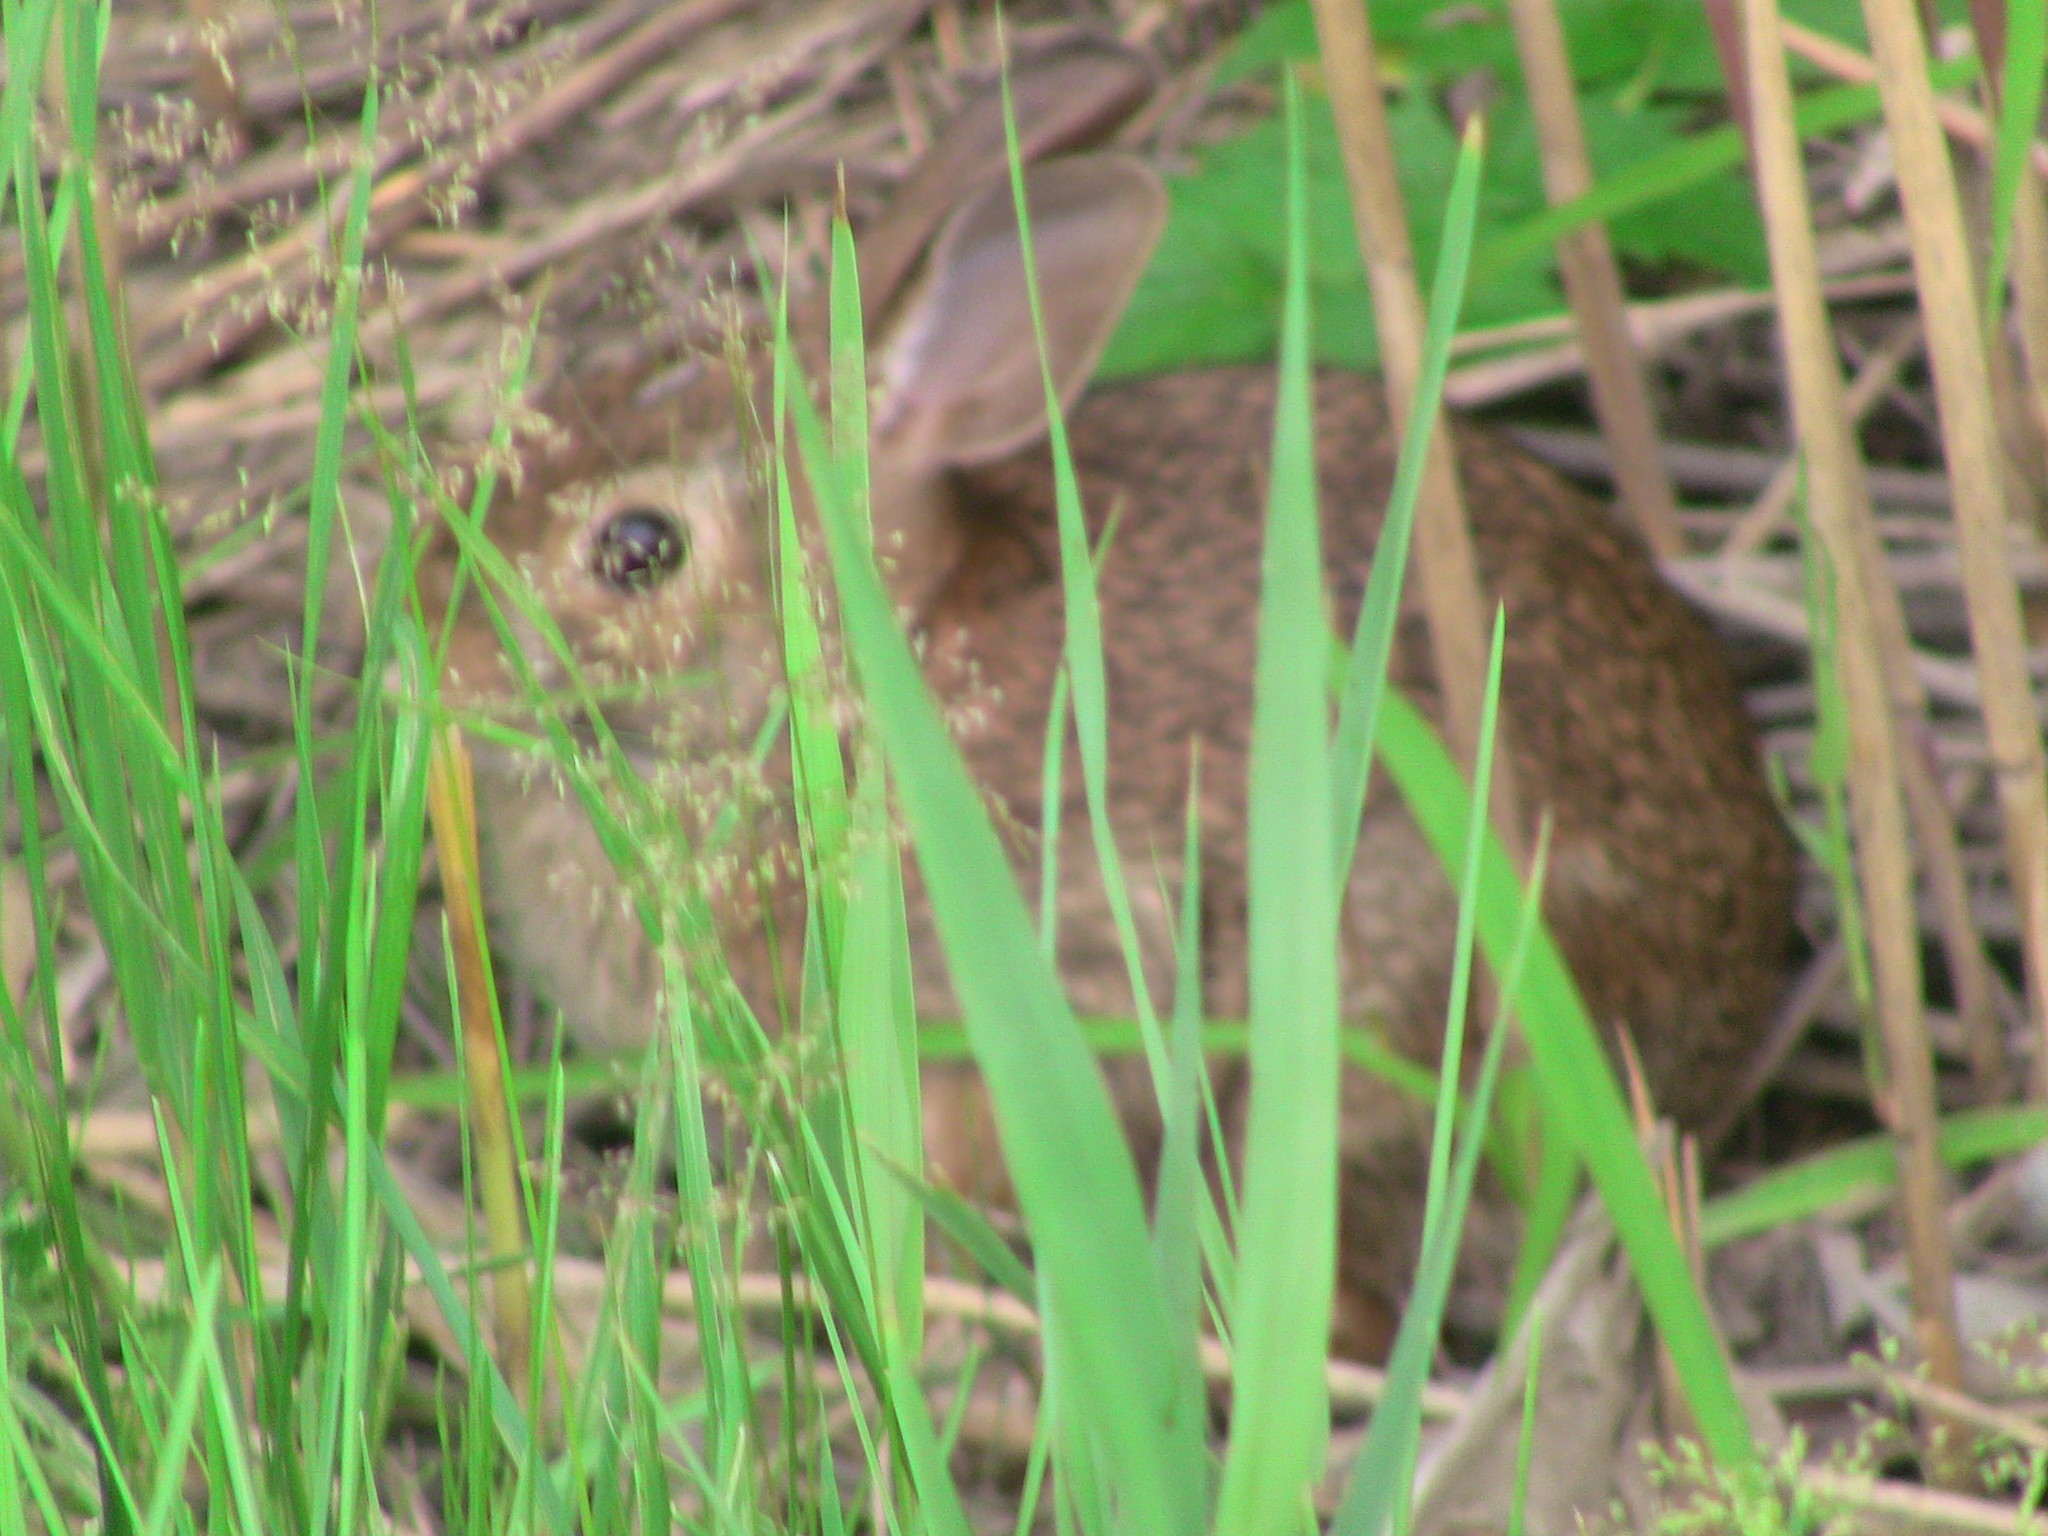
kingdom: Animalia
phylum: Chordata
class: Mammalia
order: Lagomorpha
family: Leporidae
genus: Sylvilagus
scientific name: Sylvilagus floridanus
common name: Eastern cottontail
